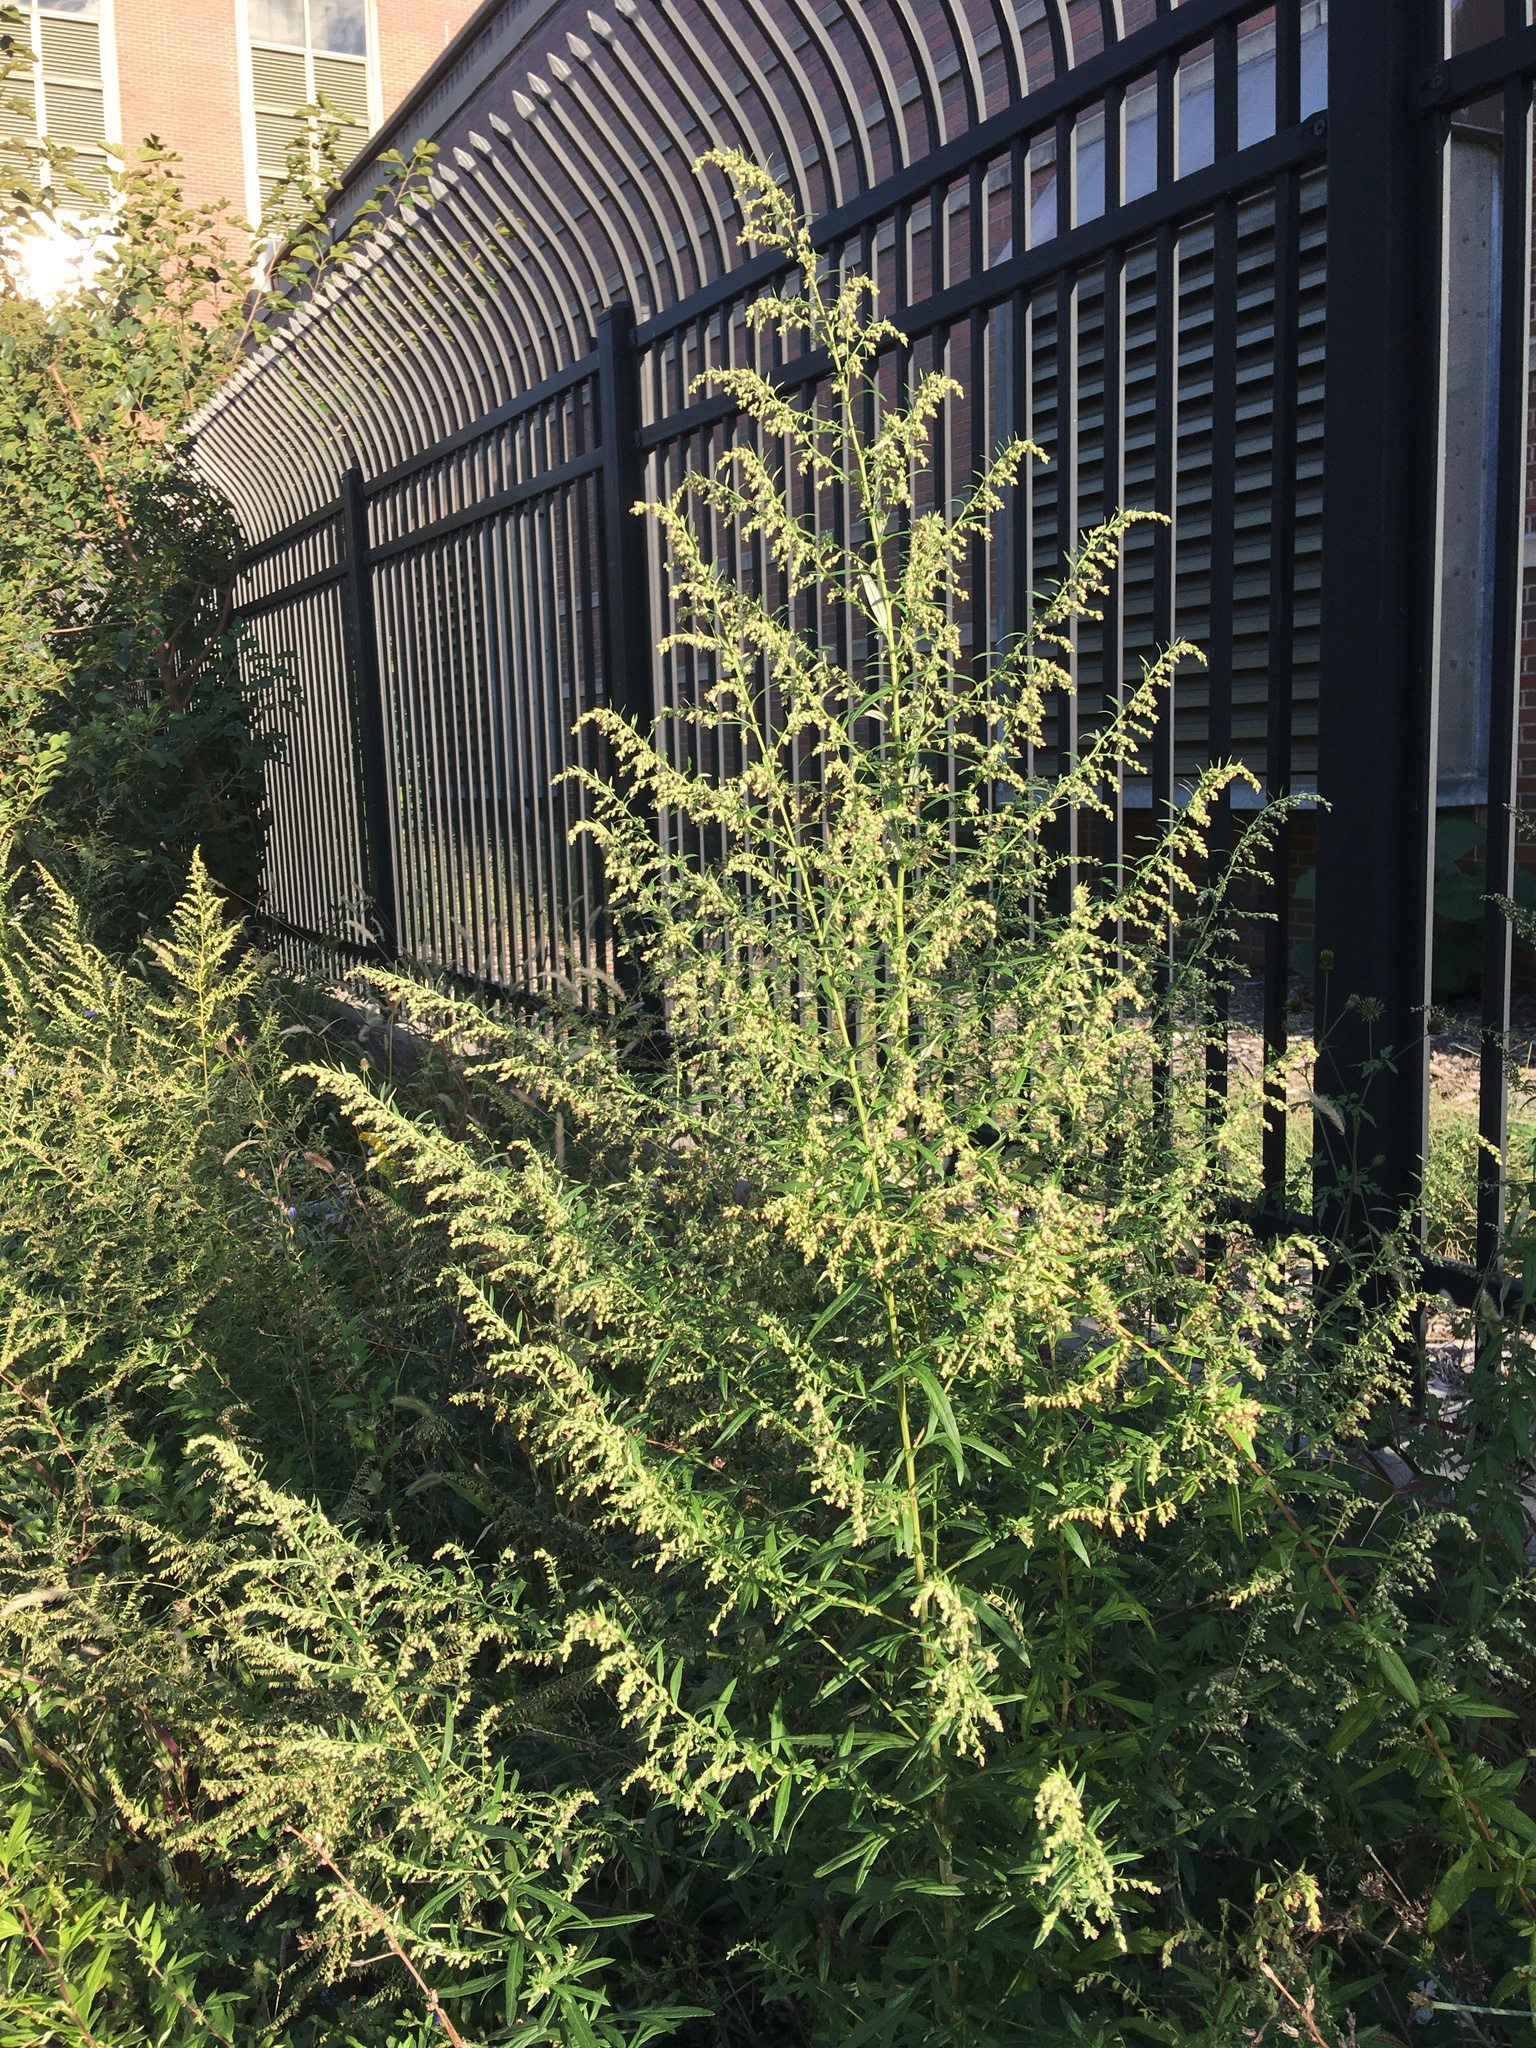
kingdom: Plantae
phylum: Tracheophyta
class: Magnoliopsida
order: Asterales
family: Asteraceae
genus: Artemisia
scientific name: Artemisia vulgaris
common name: Mugwort
